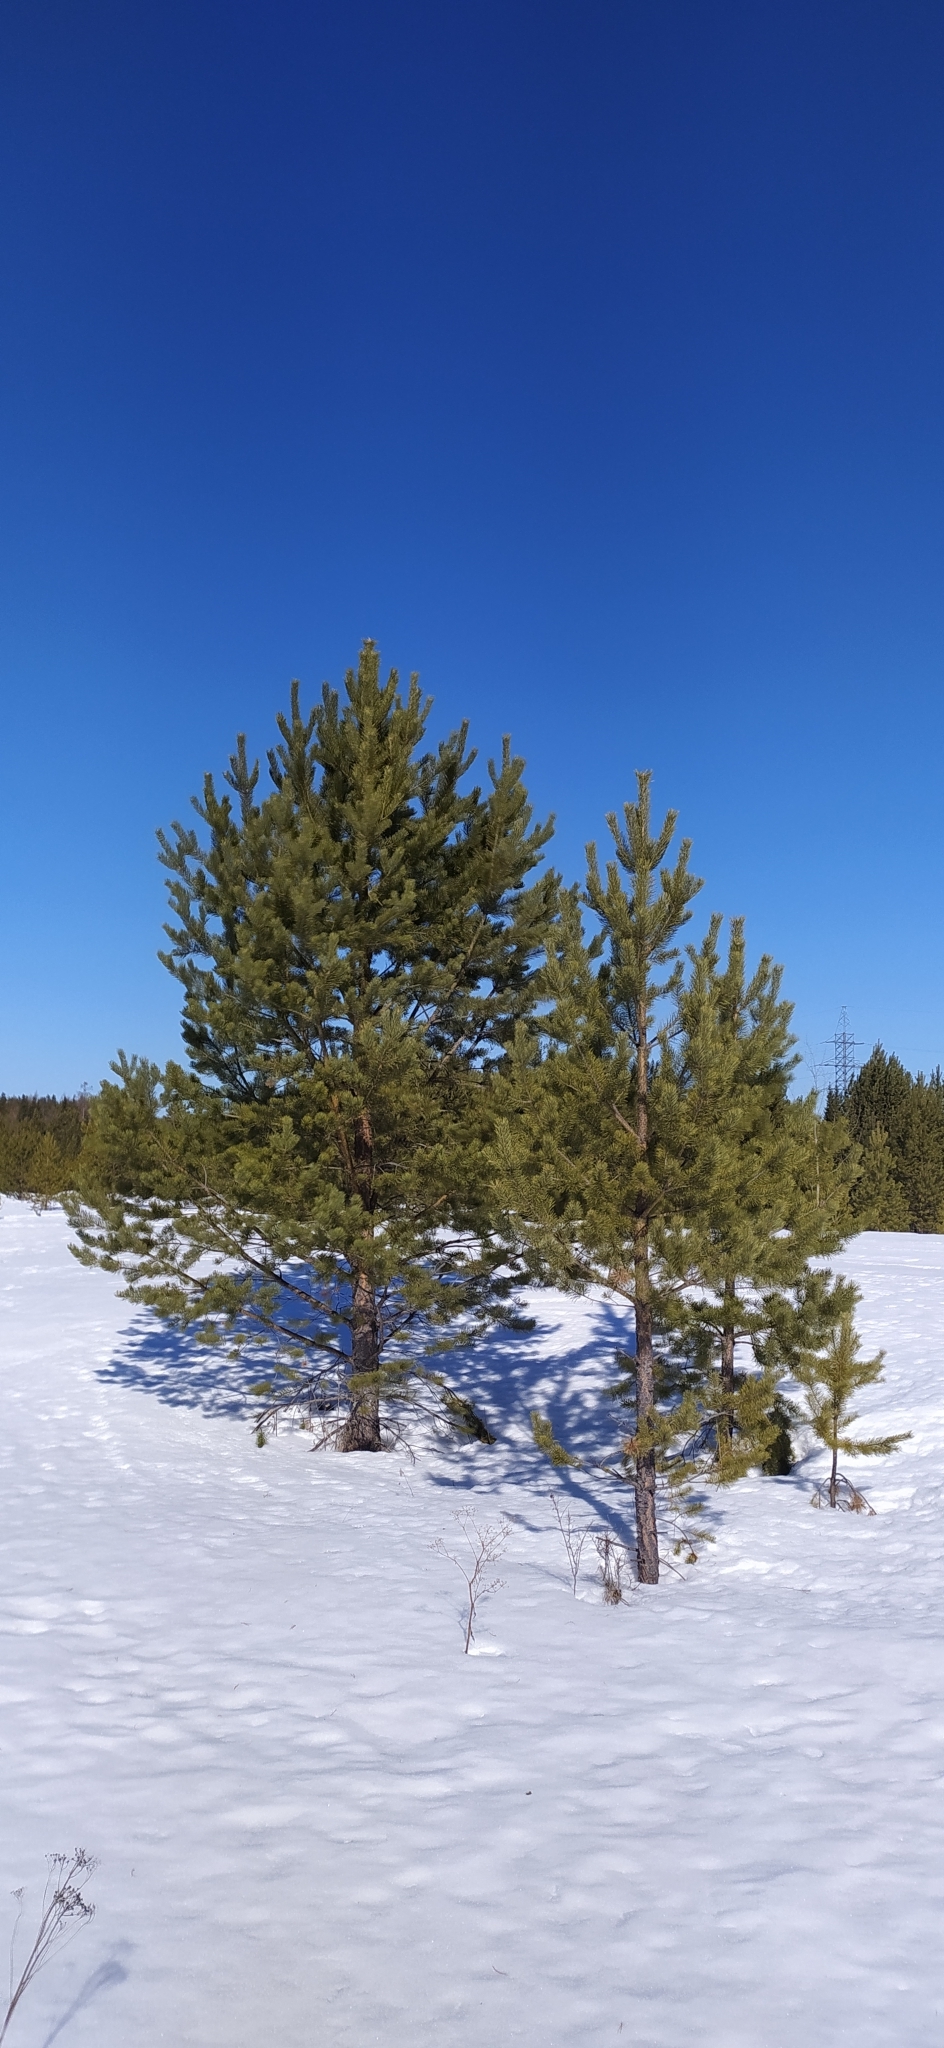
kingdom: Plantae
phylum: Tracheophyta
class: Pinopsida
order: Pinales
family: Pinaceae
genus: Pinus
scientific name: Pinus sylvestris
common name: Scots pine
